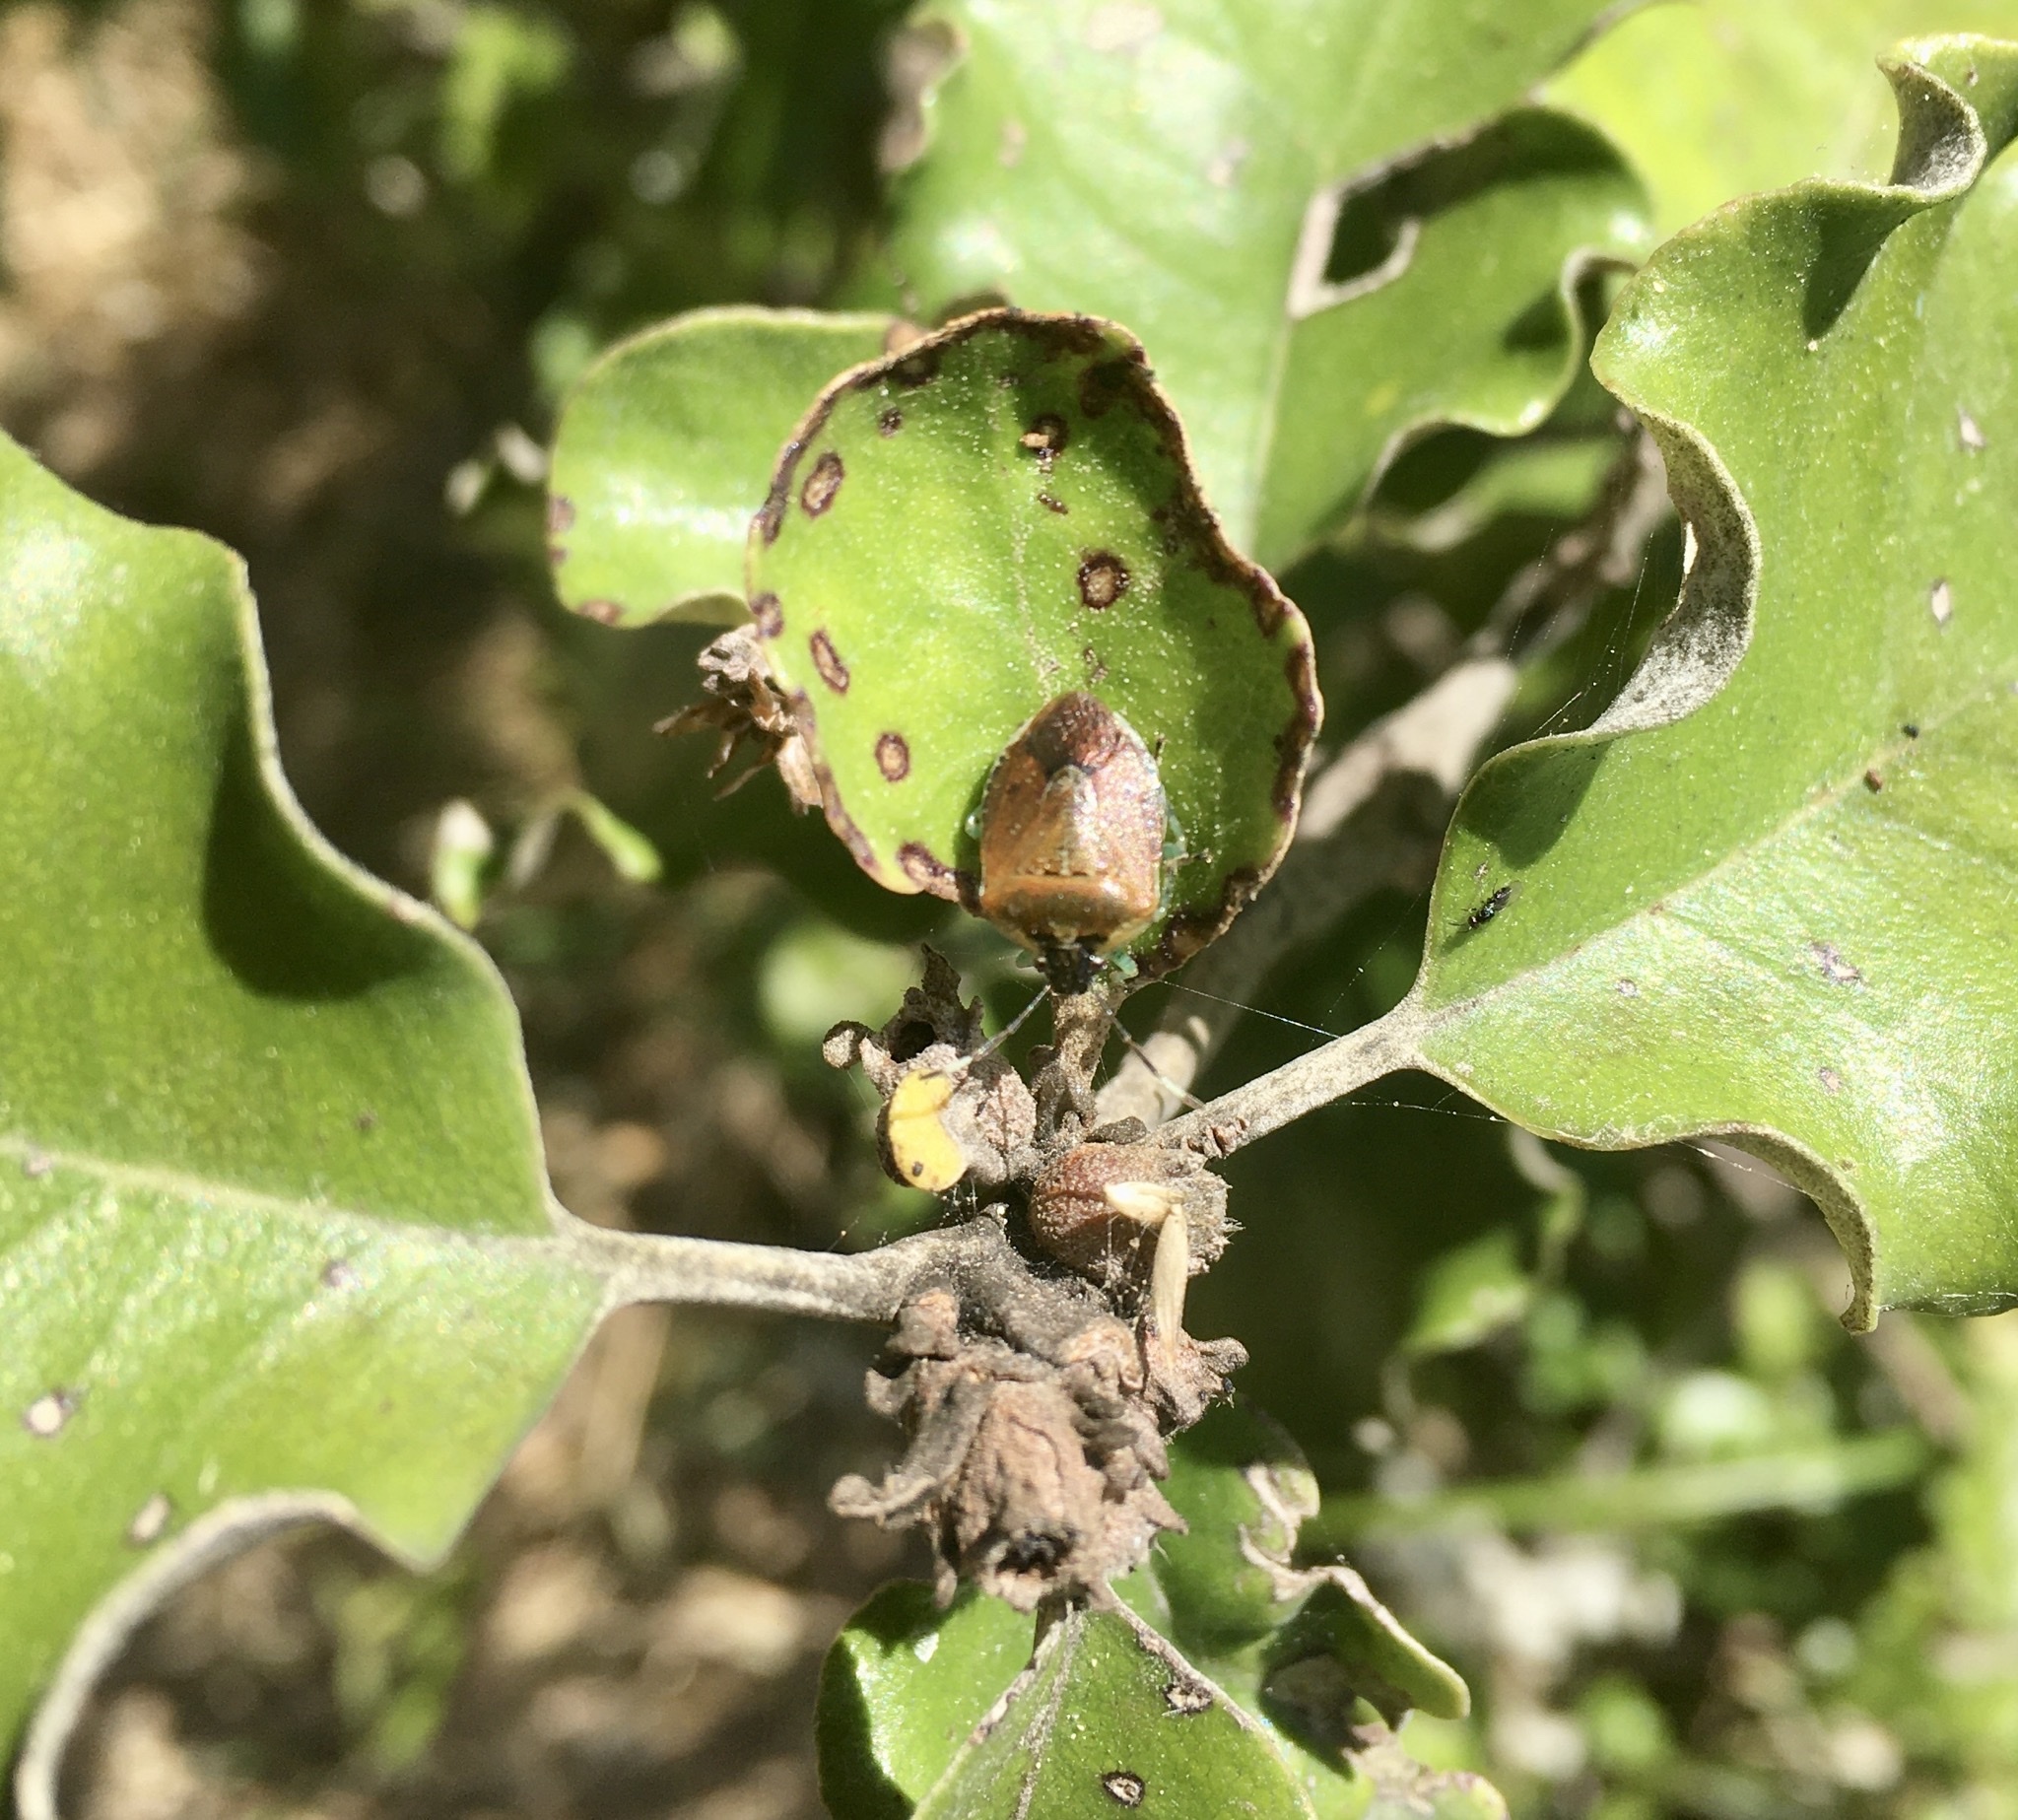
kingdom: Animalia
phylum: Arthropoda
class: Insecta
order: Hemiptera
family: Pentatomidae
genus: Monteithiella
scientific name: Monteithiella
